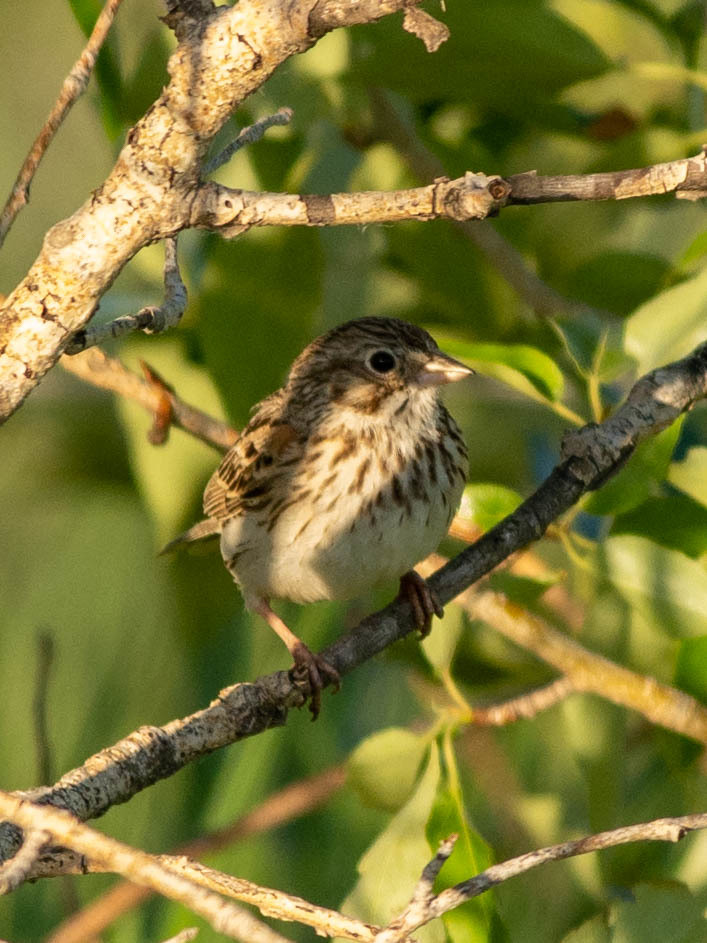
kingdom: Animalia
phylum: Chordata
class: Aves
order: Passeriformes
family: Passerellidae
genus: Pooecetes
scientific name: Pooecetes gramineus
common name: Vesper sparrow
